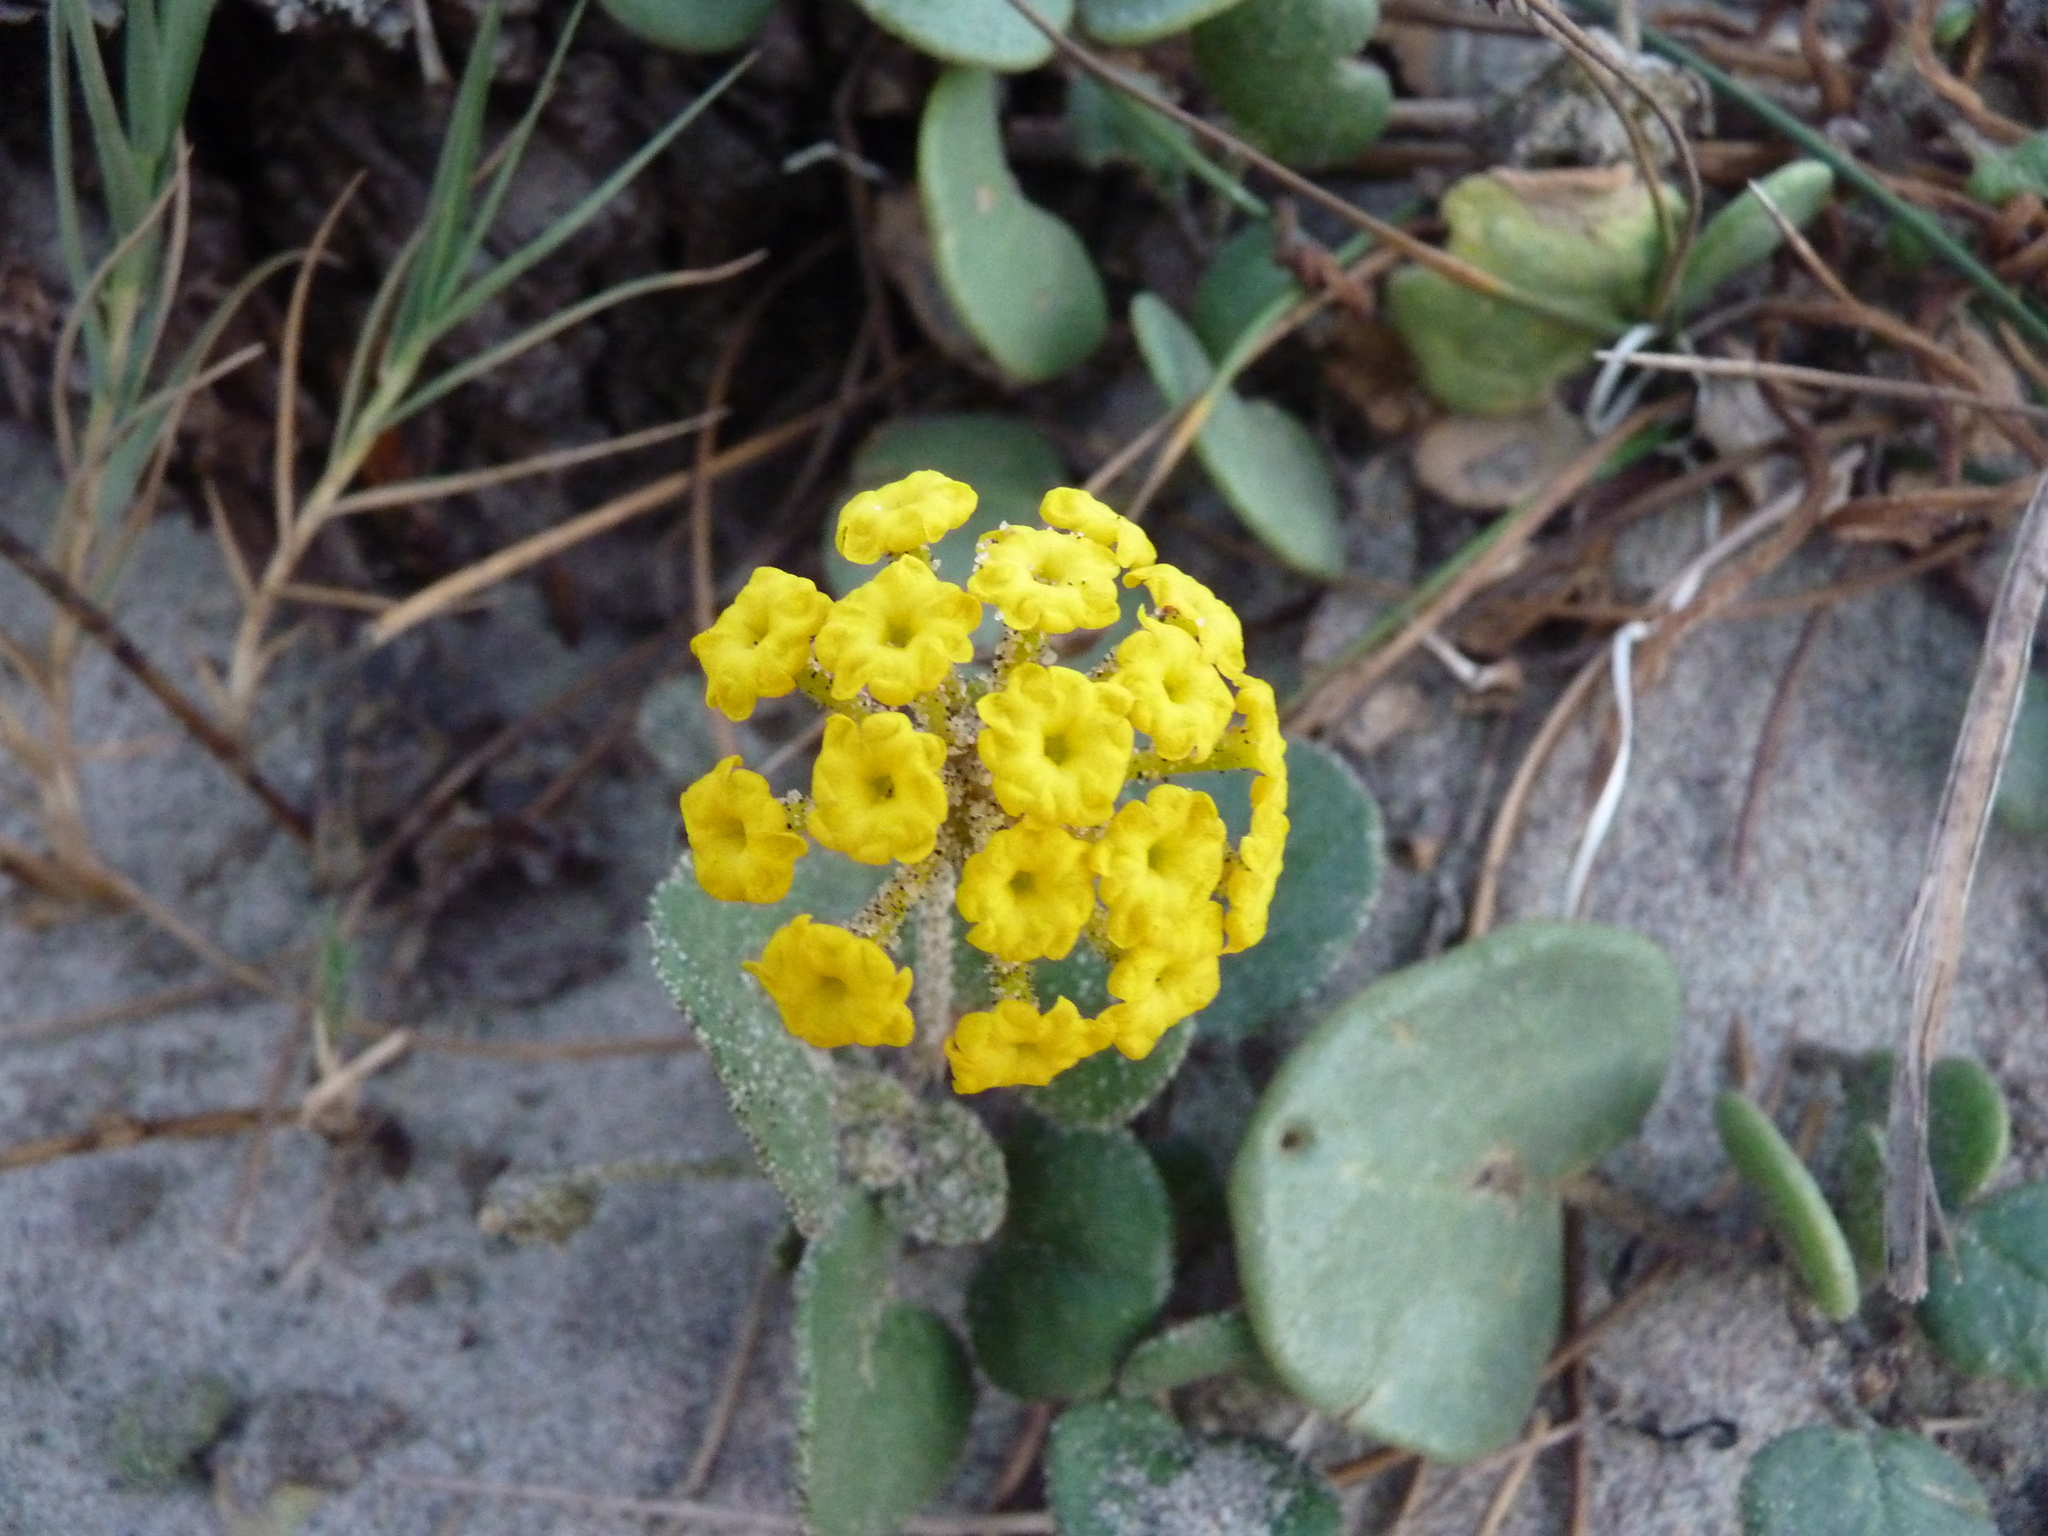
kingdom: Plantae
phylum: Tracheophyta
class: Magnoliopsida
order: Caryophyllales
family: Nyctaginaceae
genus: Abronia
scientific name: Abronia latifolia
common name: Yellow sand-verbena
